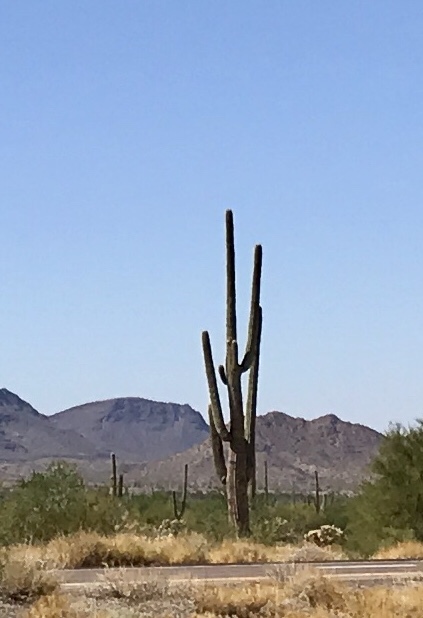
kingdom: Plantae
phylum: Tracheophyta
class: Magnoliopsida
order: Caryophyllales
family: Cactaceae
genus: Carnegiea
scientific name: Carnegiea gigantea
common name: Saguaro
